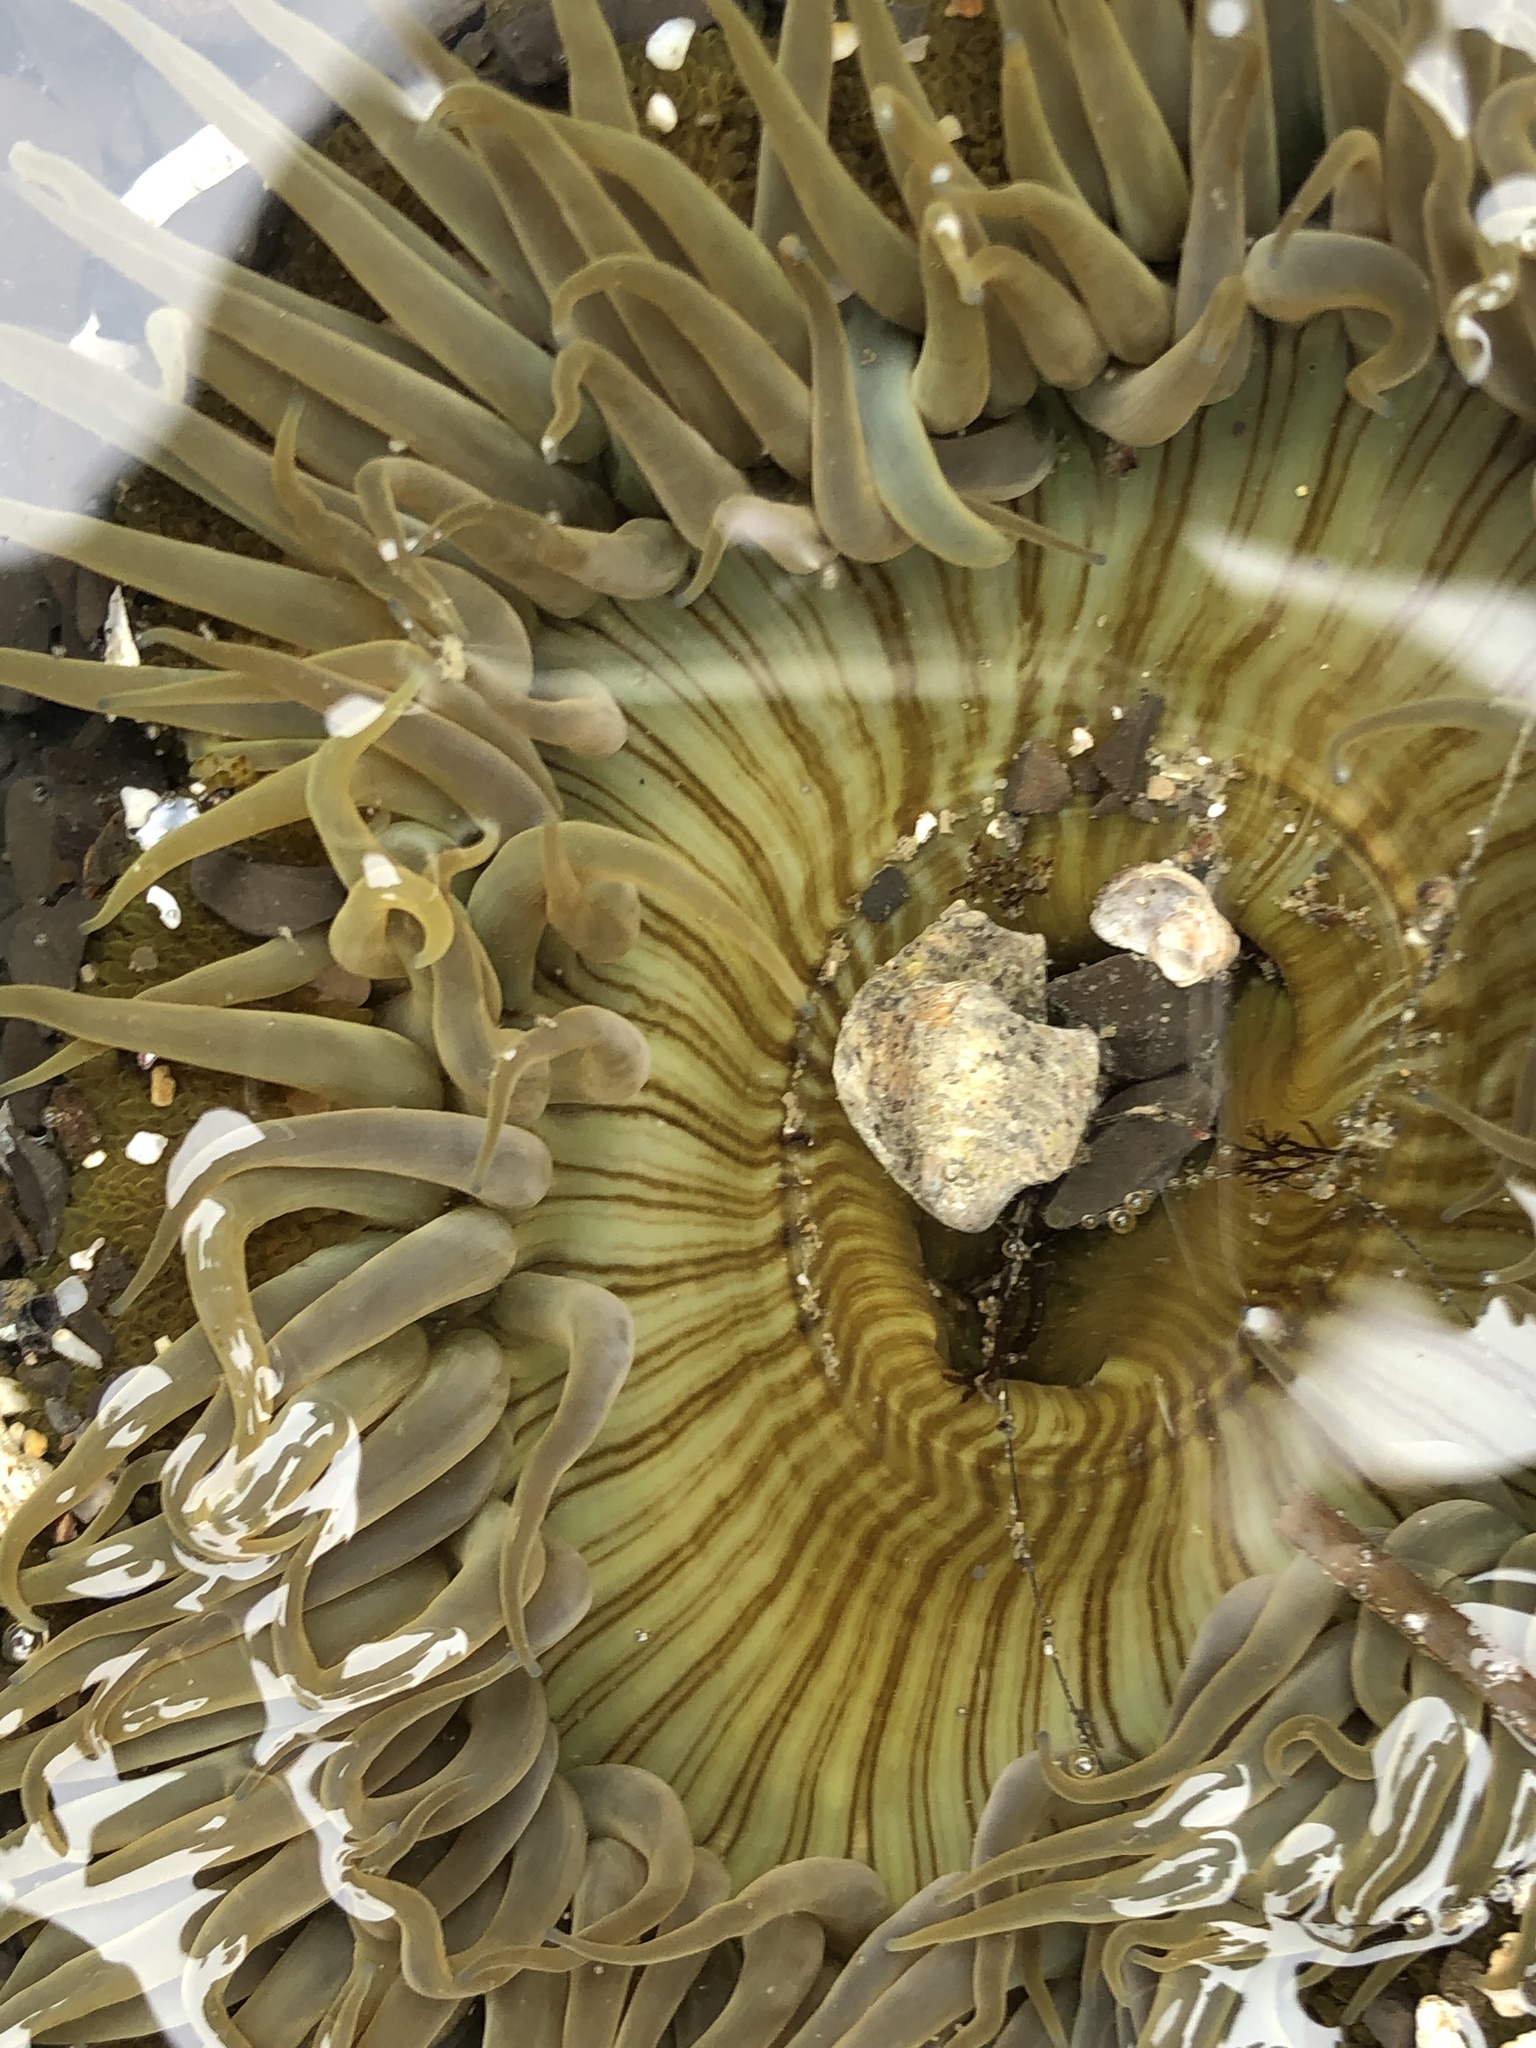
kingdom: Animalia
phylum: Cnidaria
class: Anthozoa
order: Actiniaria
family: Actiniidae
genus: Anthopleura
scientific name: Anthopleura sola
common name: Sun anemone
